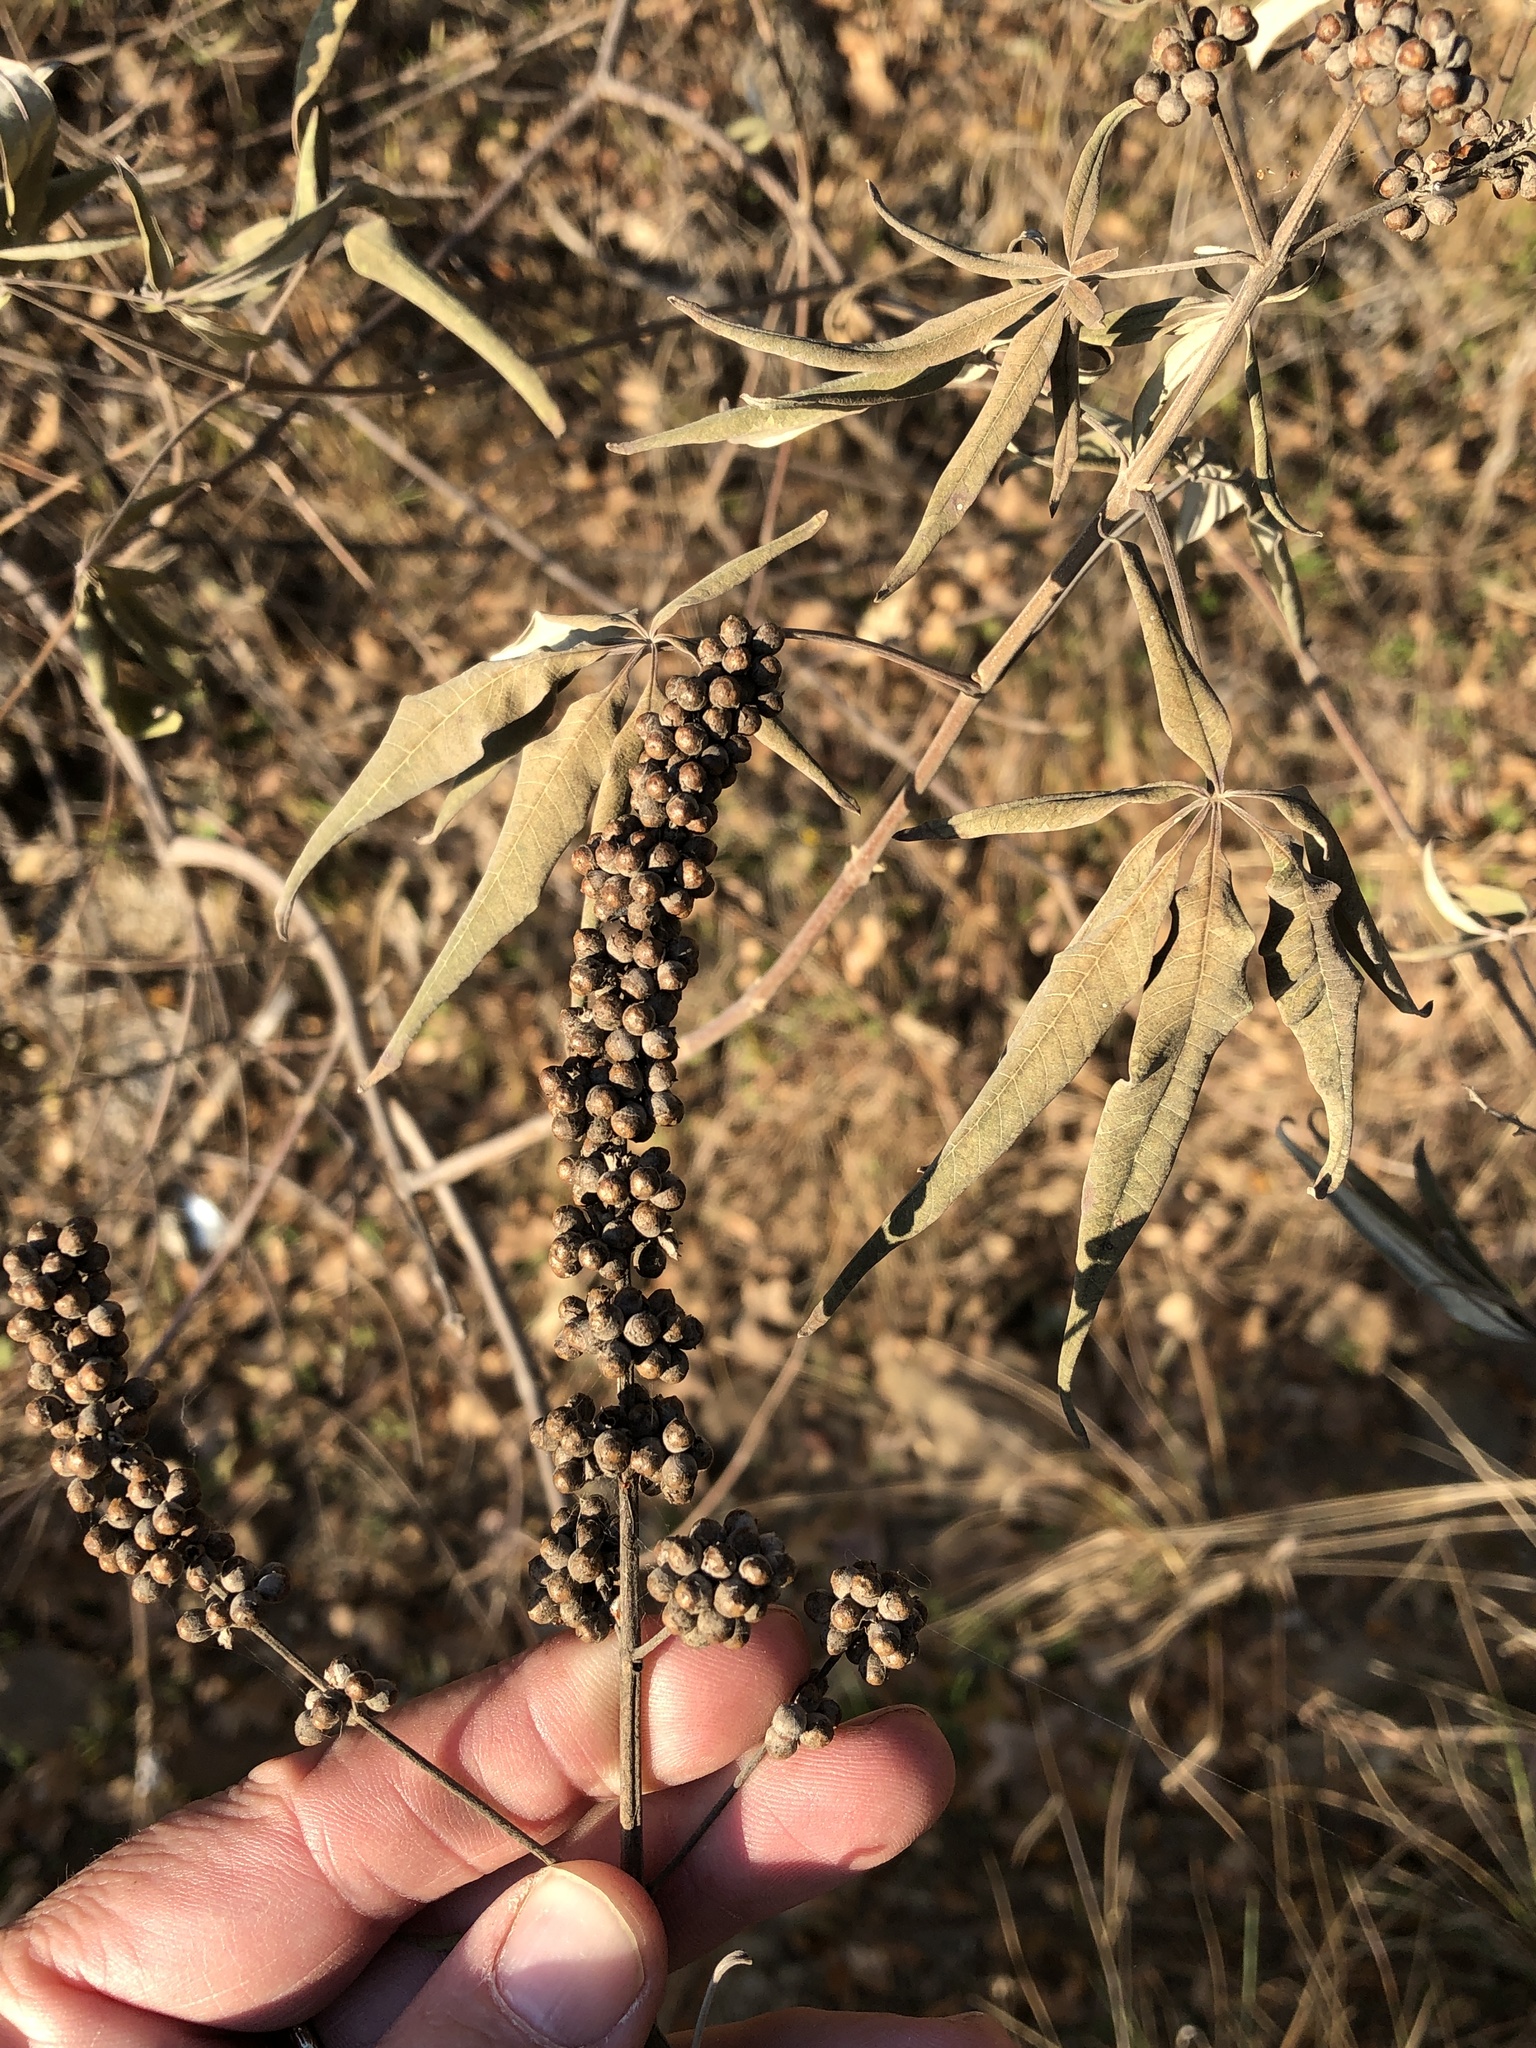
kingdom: Plantae
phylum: Tracheophyta
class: Magnoliopsida
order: Lamiales
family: Lamiaceae
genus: Vitex
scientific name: Vitex agnus-castus
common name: Chasteberry
